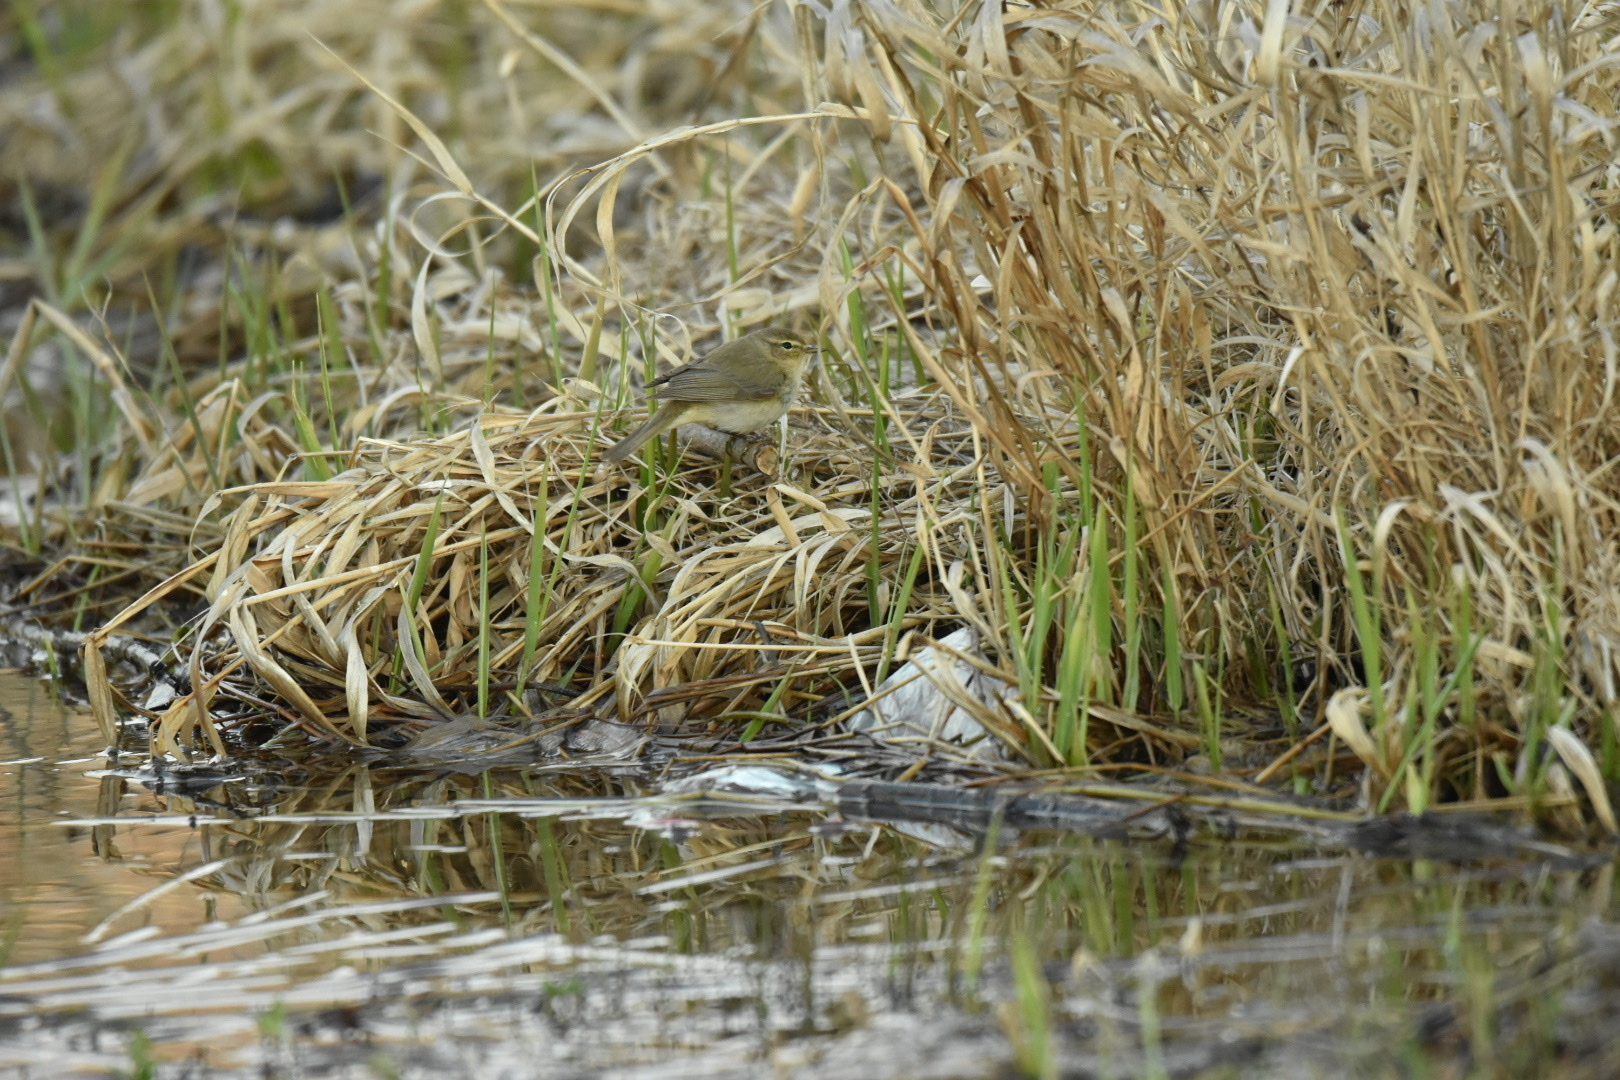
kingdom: Animalia
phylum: Chordata
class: Aves
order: Passeriformes
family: Phylloscopidae
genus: Phylloscopus
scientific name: Phylloscopus collybita
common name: Common chiffchaff
